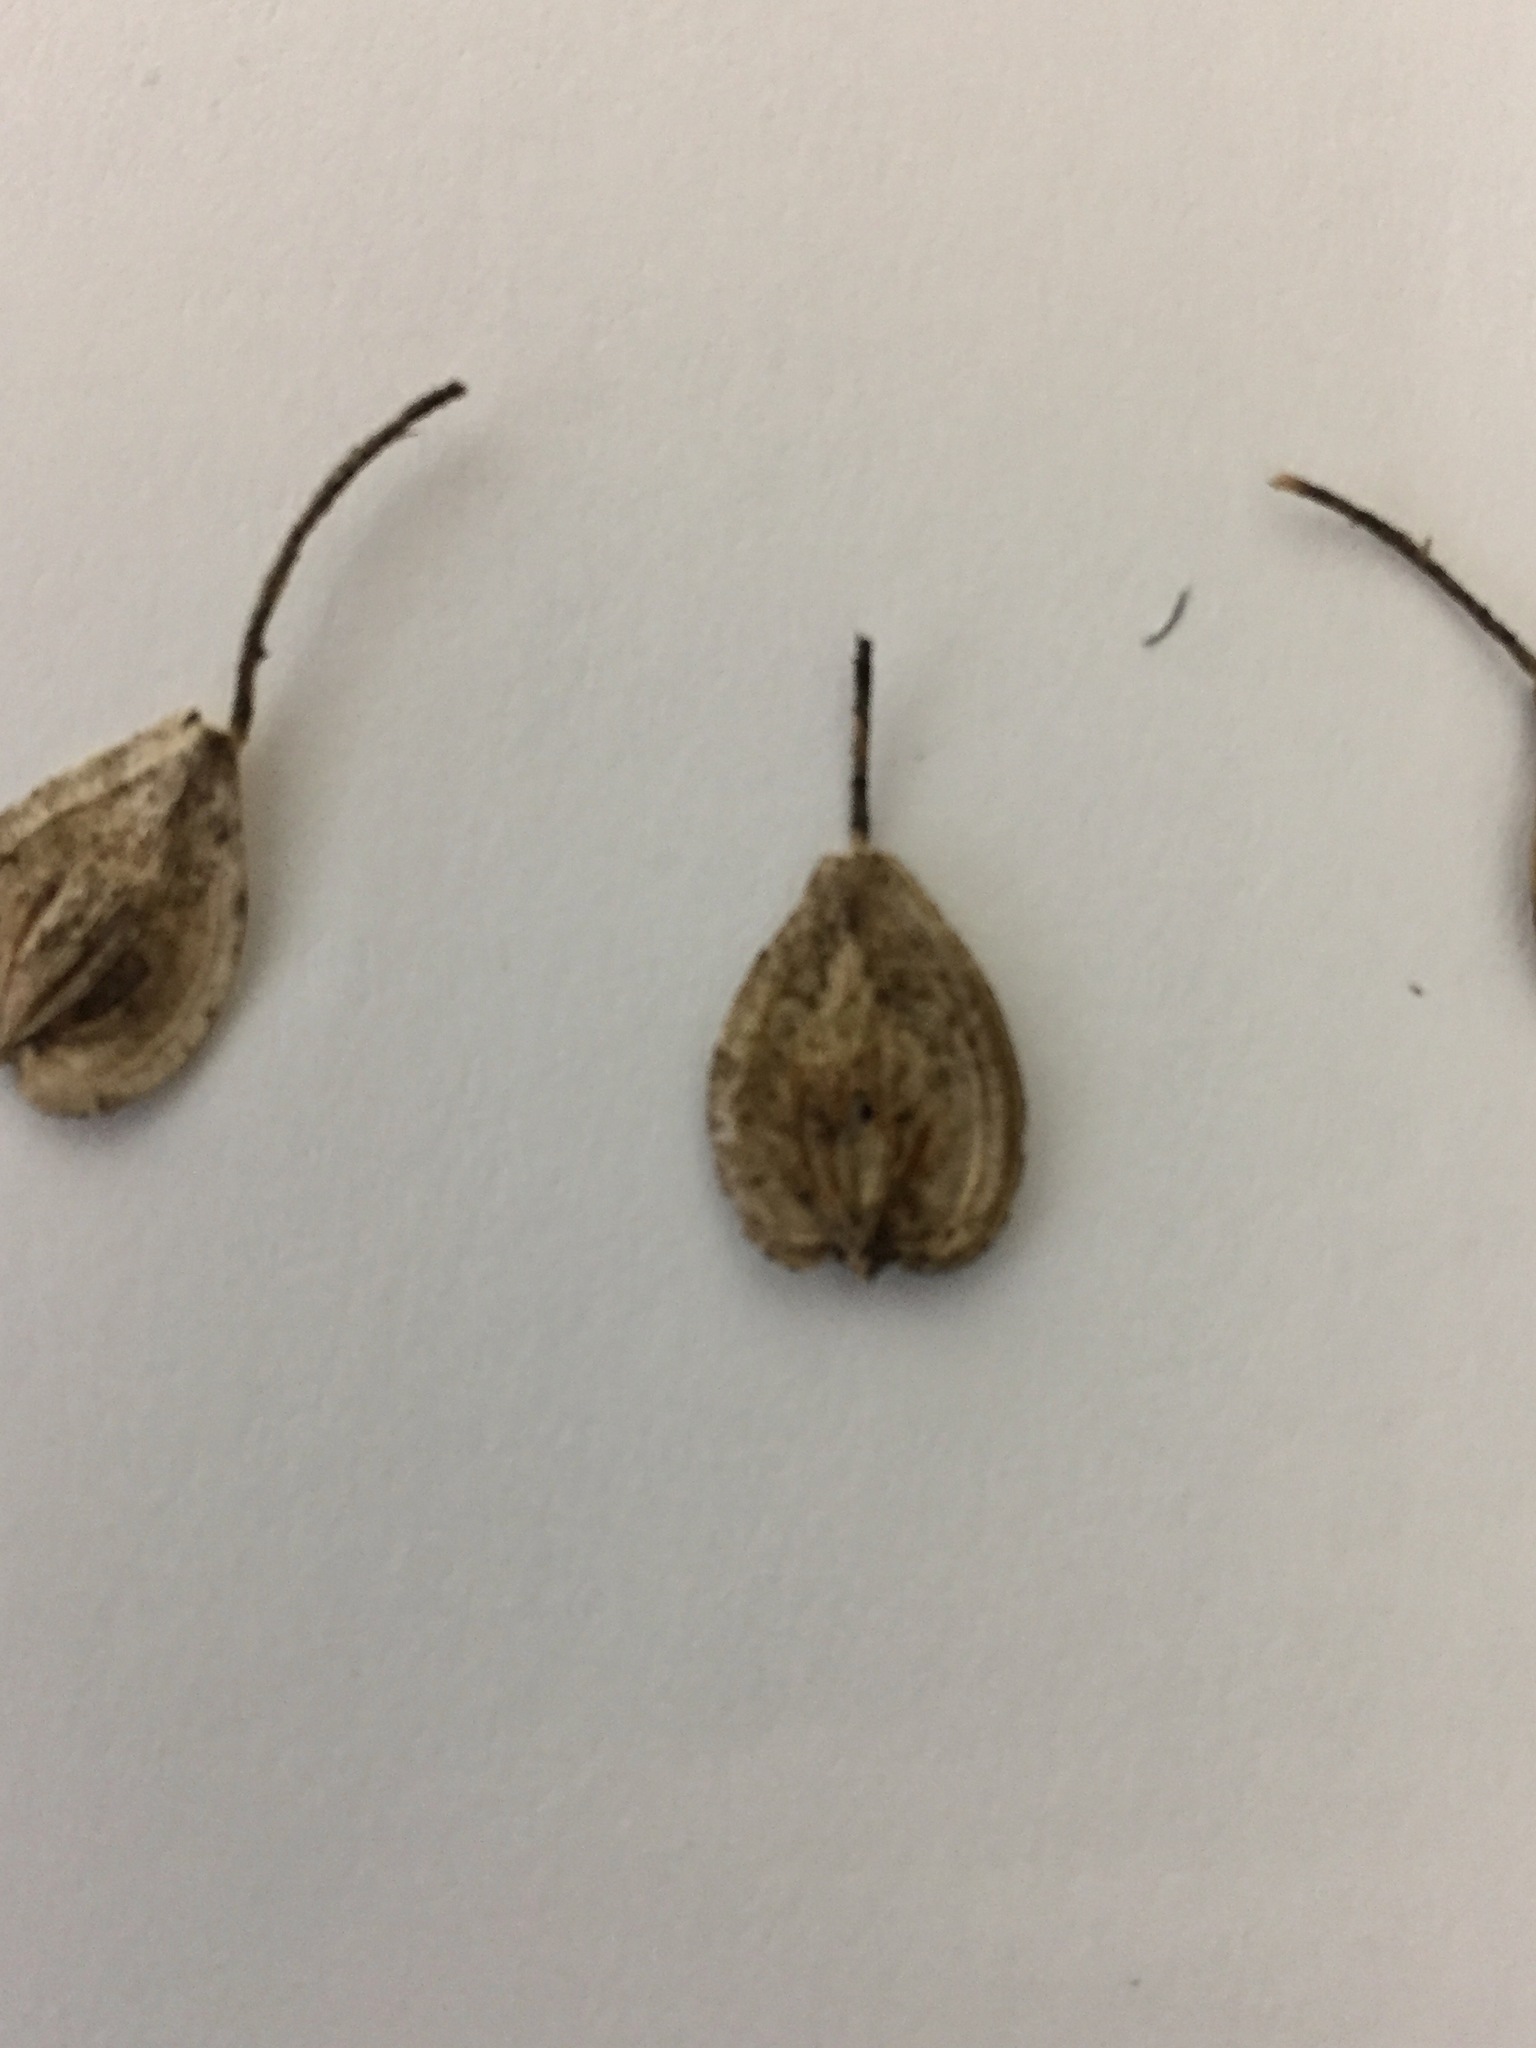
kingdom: Plantae
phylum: Tracheophyta
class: Magnoliopsida
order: Apiales
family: Apiaceae
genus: Heracleum
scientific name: Heracleum maximum
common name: American cow parsnip
